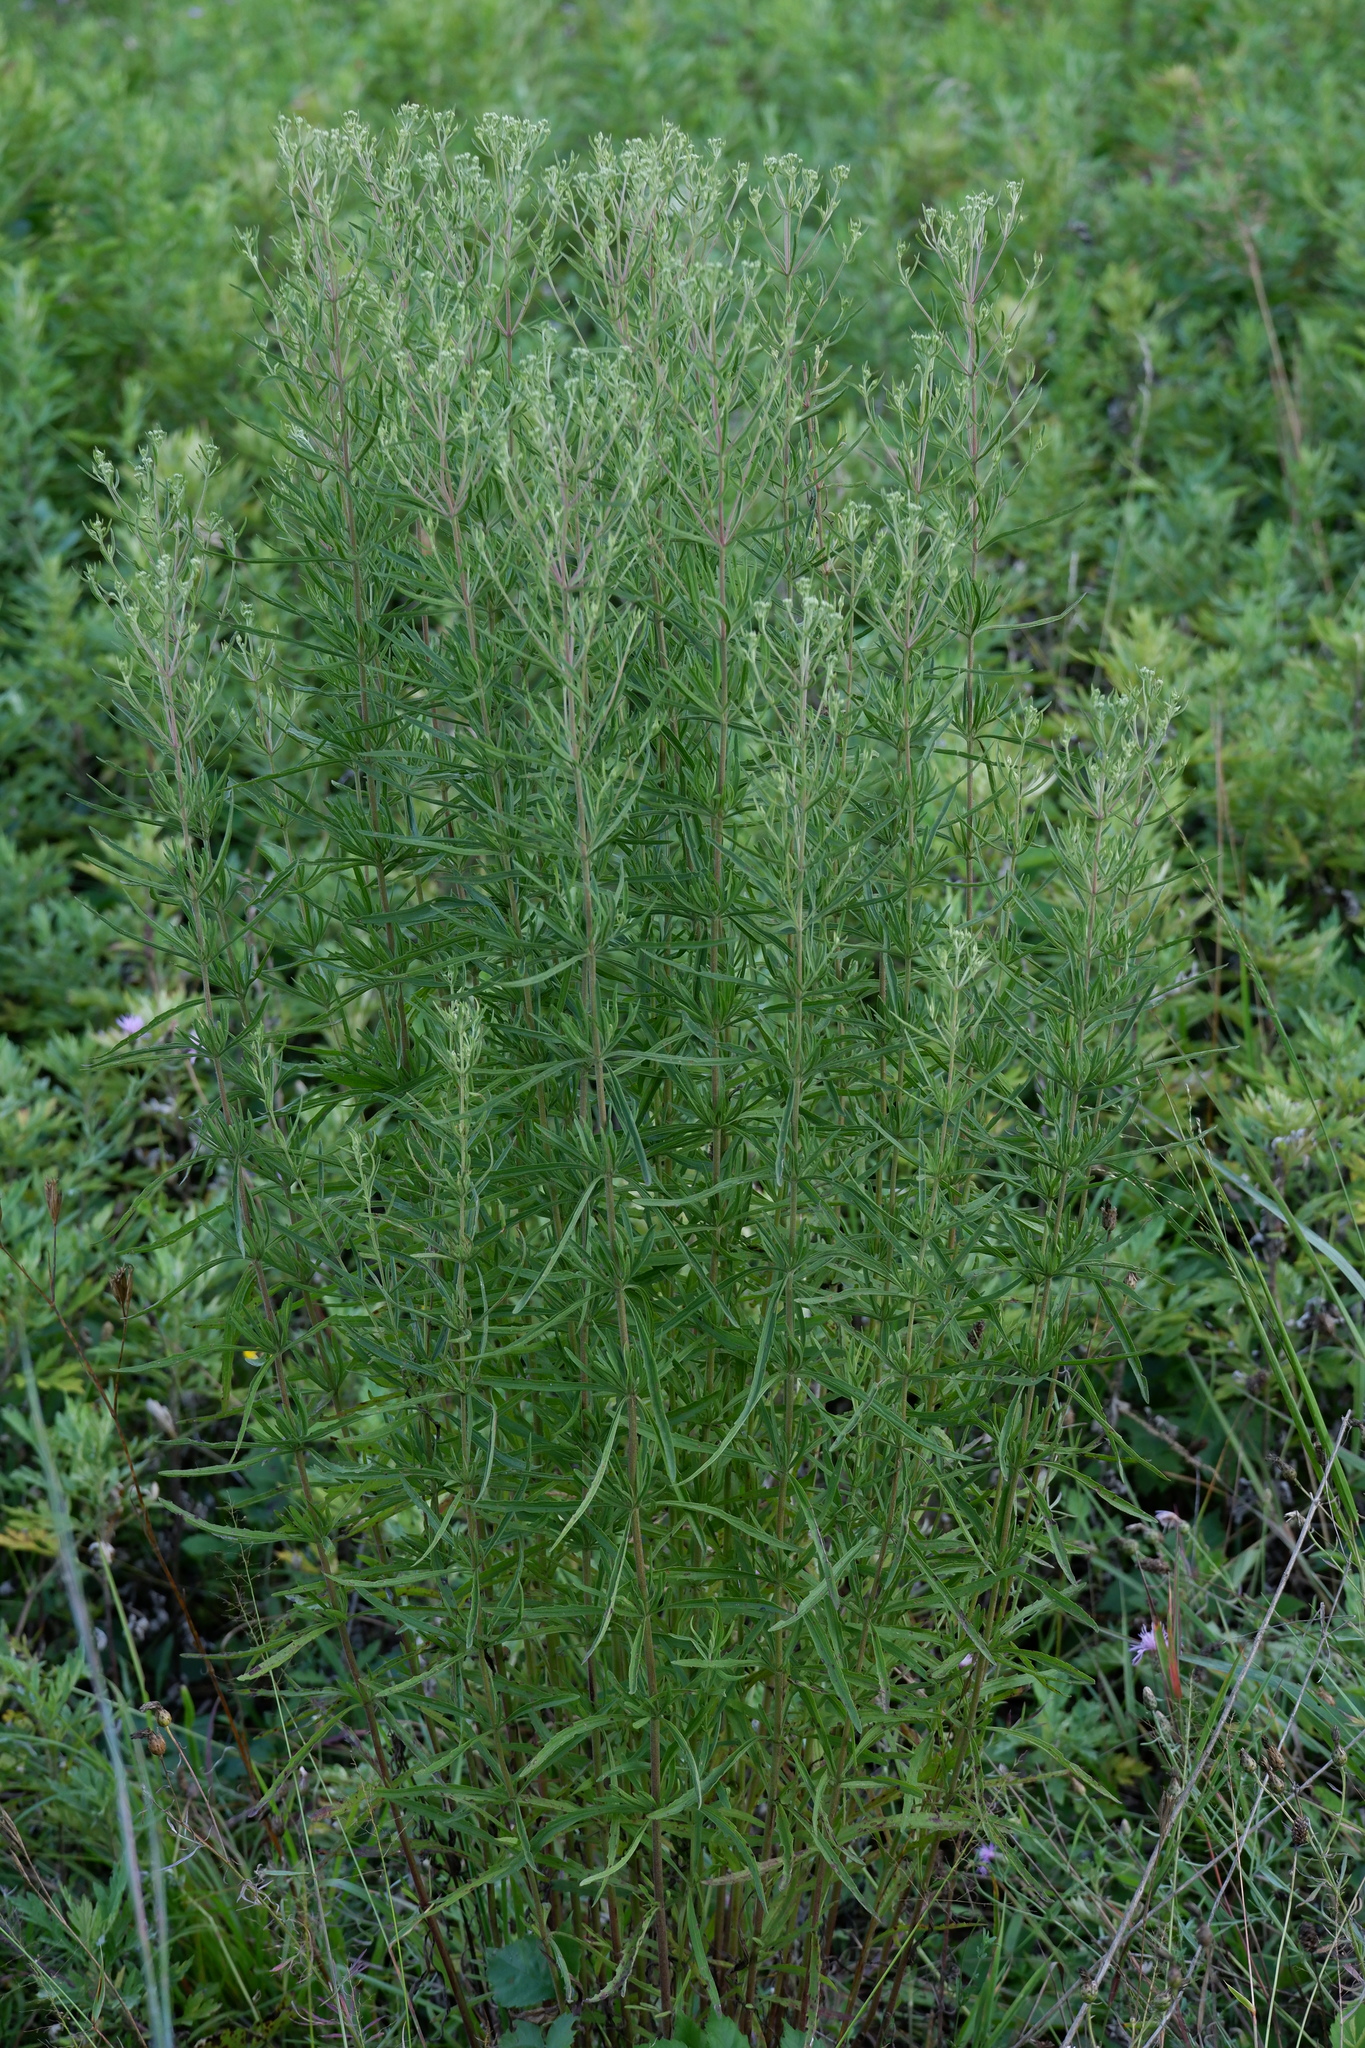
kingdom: Plantae
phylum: Tracheophyta
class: Magnoliopsida
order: Asterales
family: Asteraceae
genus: Eupatorium
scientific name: Eupatorium torreyanum
